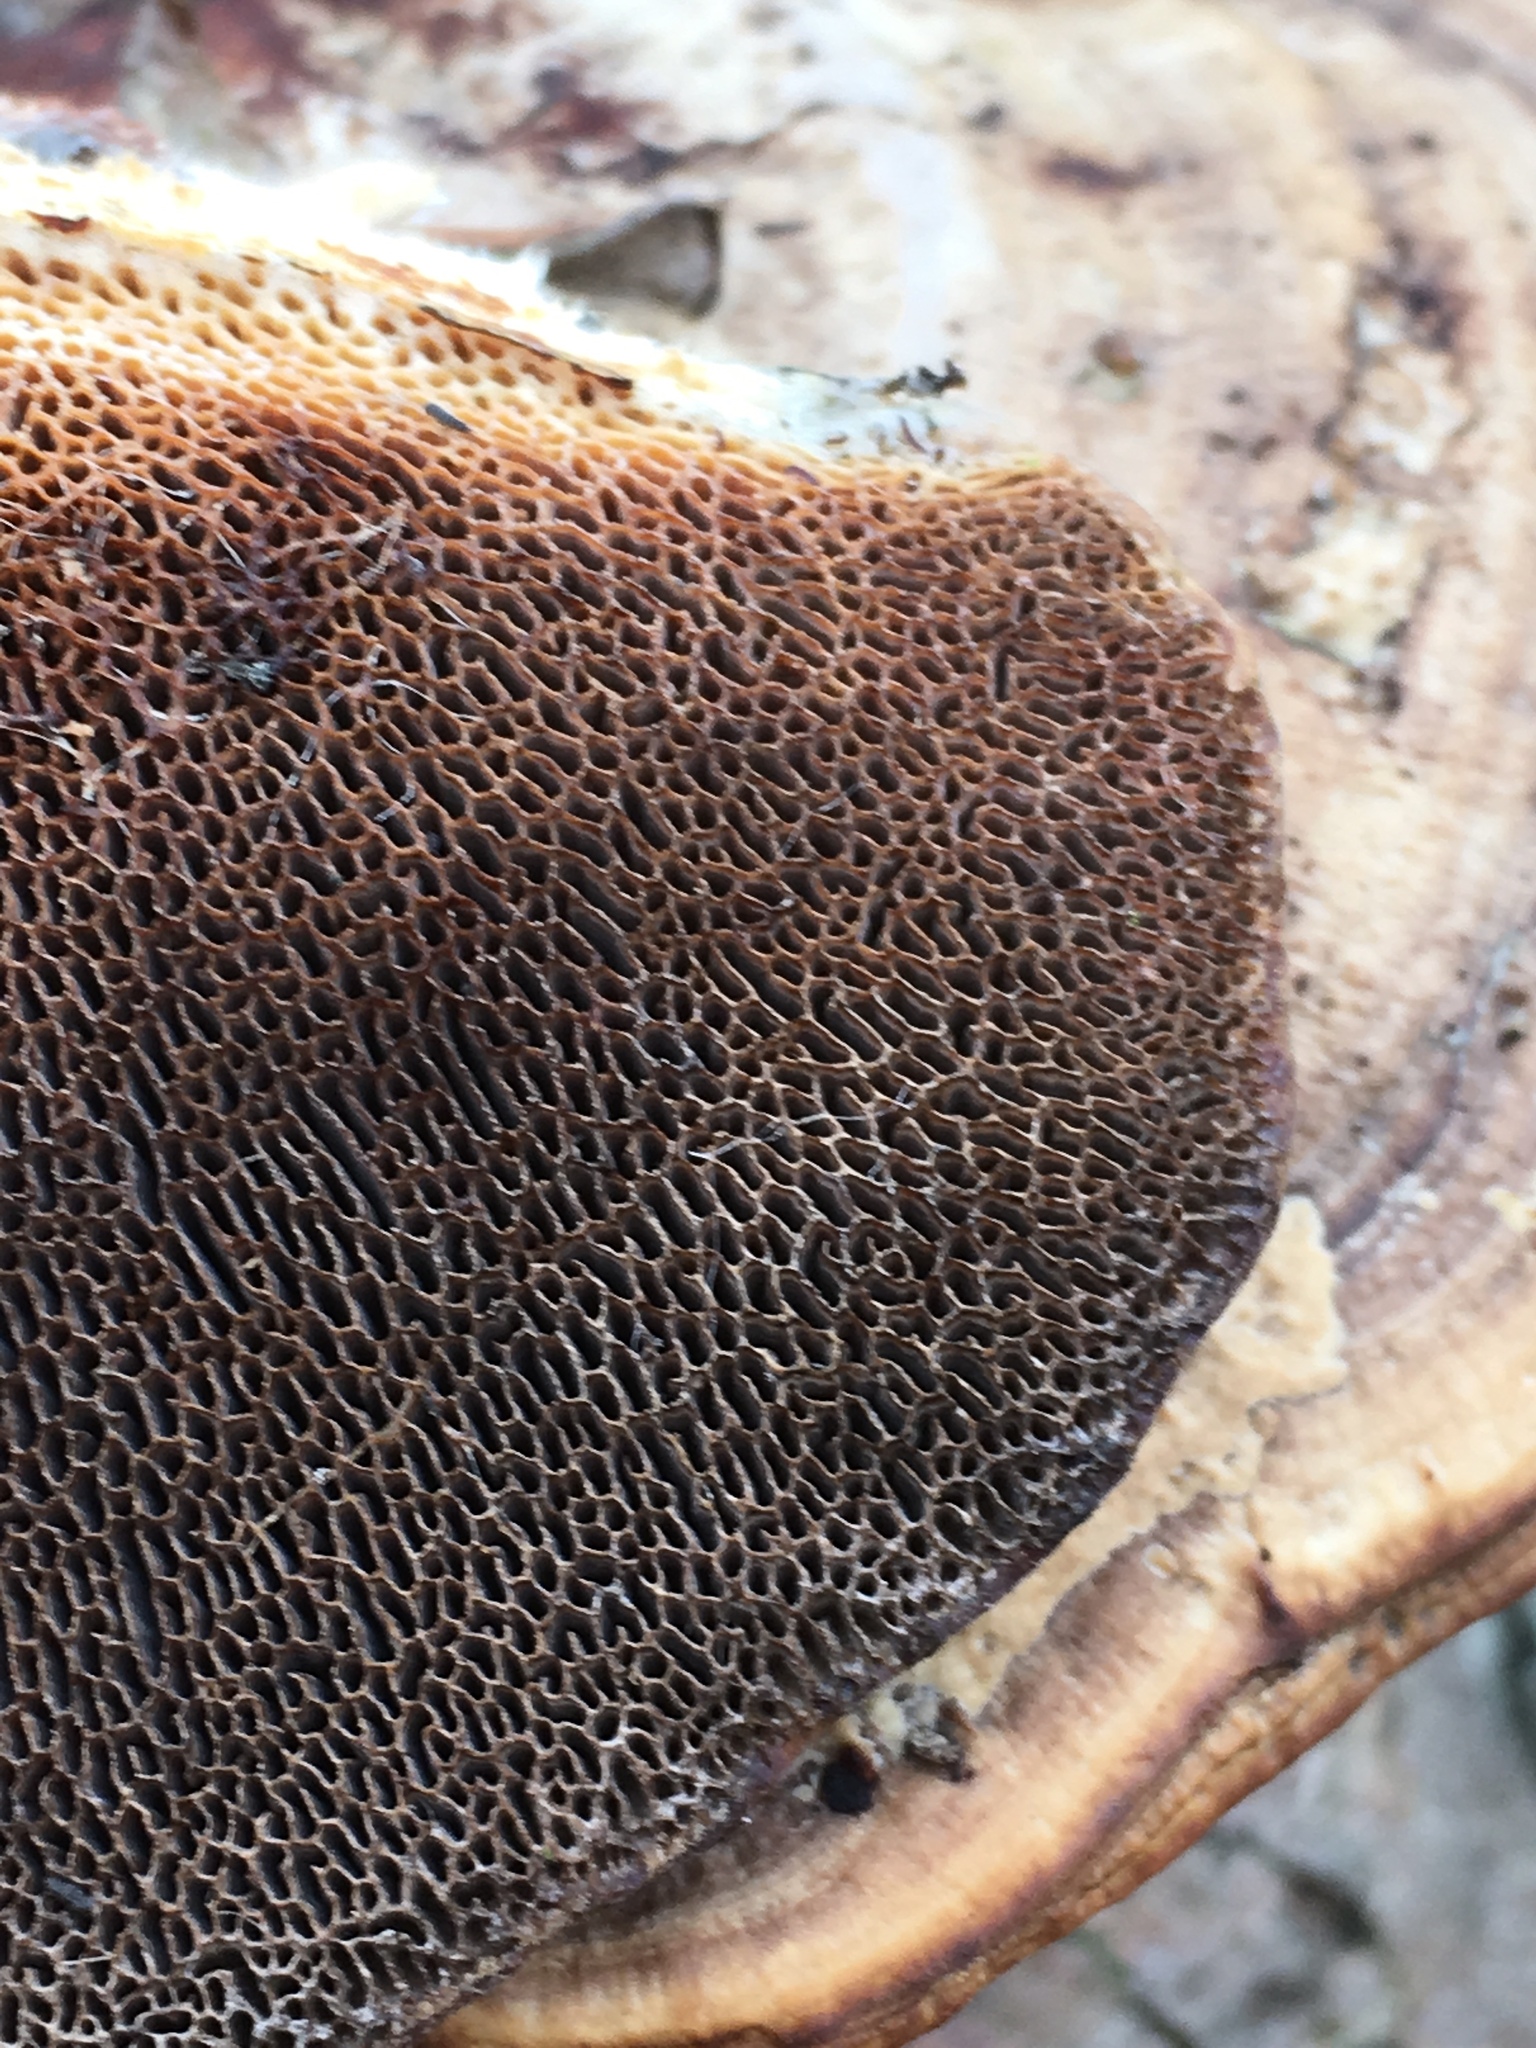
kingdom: Fungi
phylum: Basidiomycota
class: Agaricomycetes
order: Polyporales
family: Polyporaceae
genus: Daedaleopsis
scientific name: Daedaleopsis confragosa
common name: Blushing bracket
